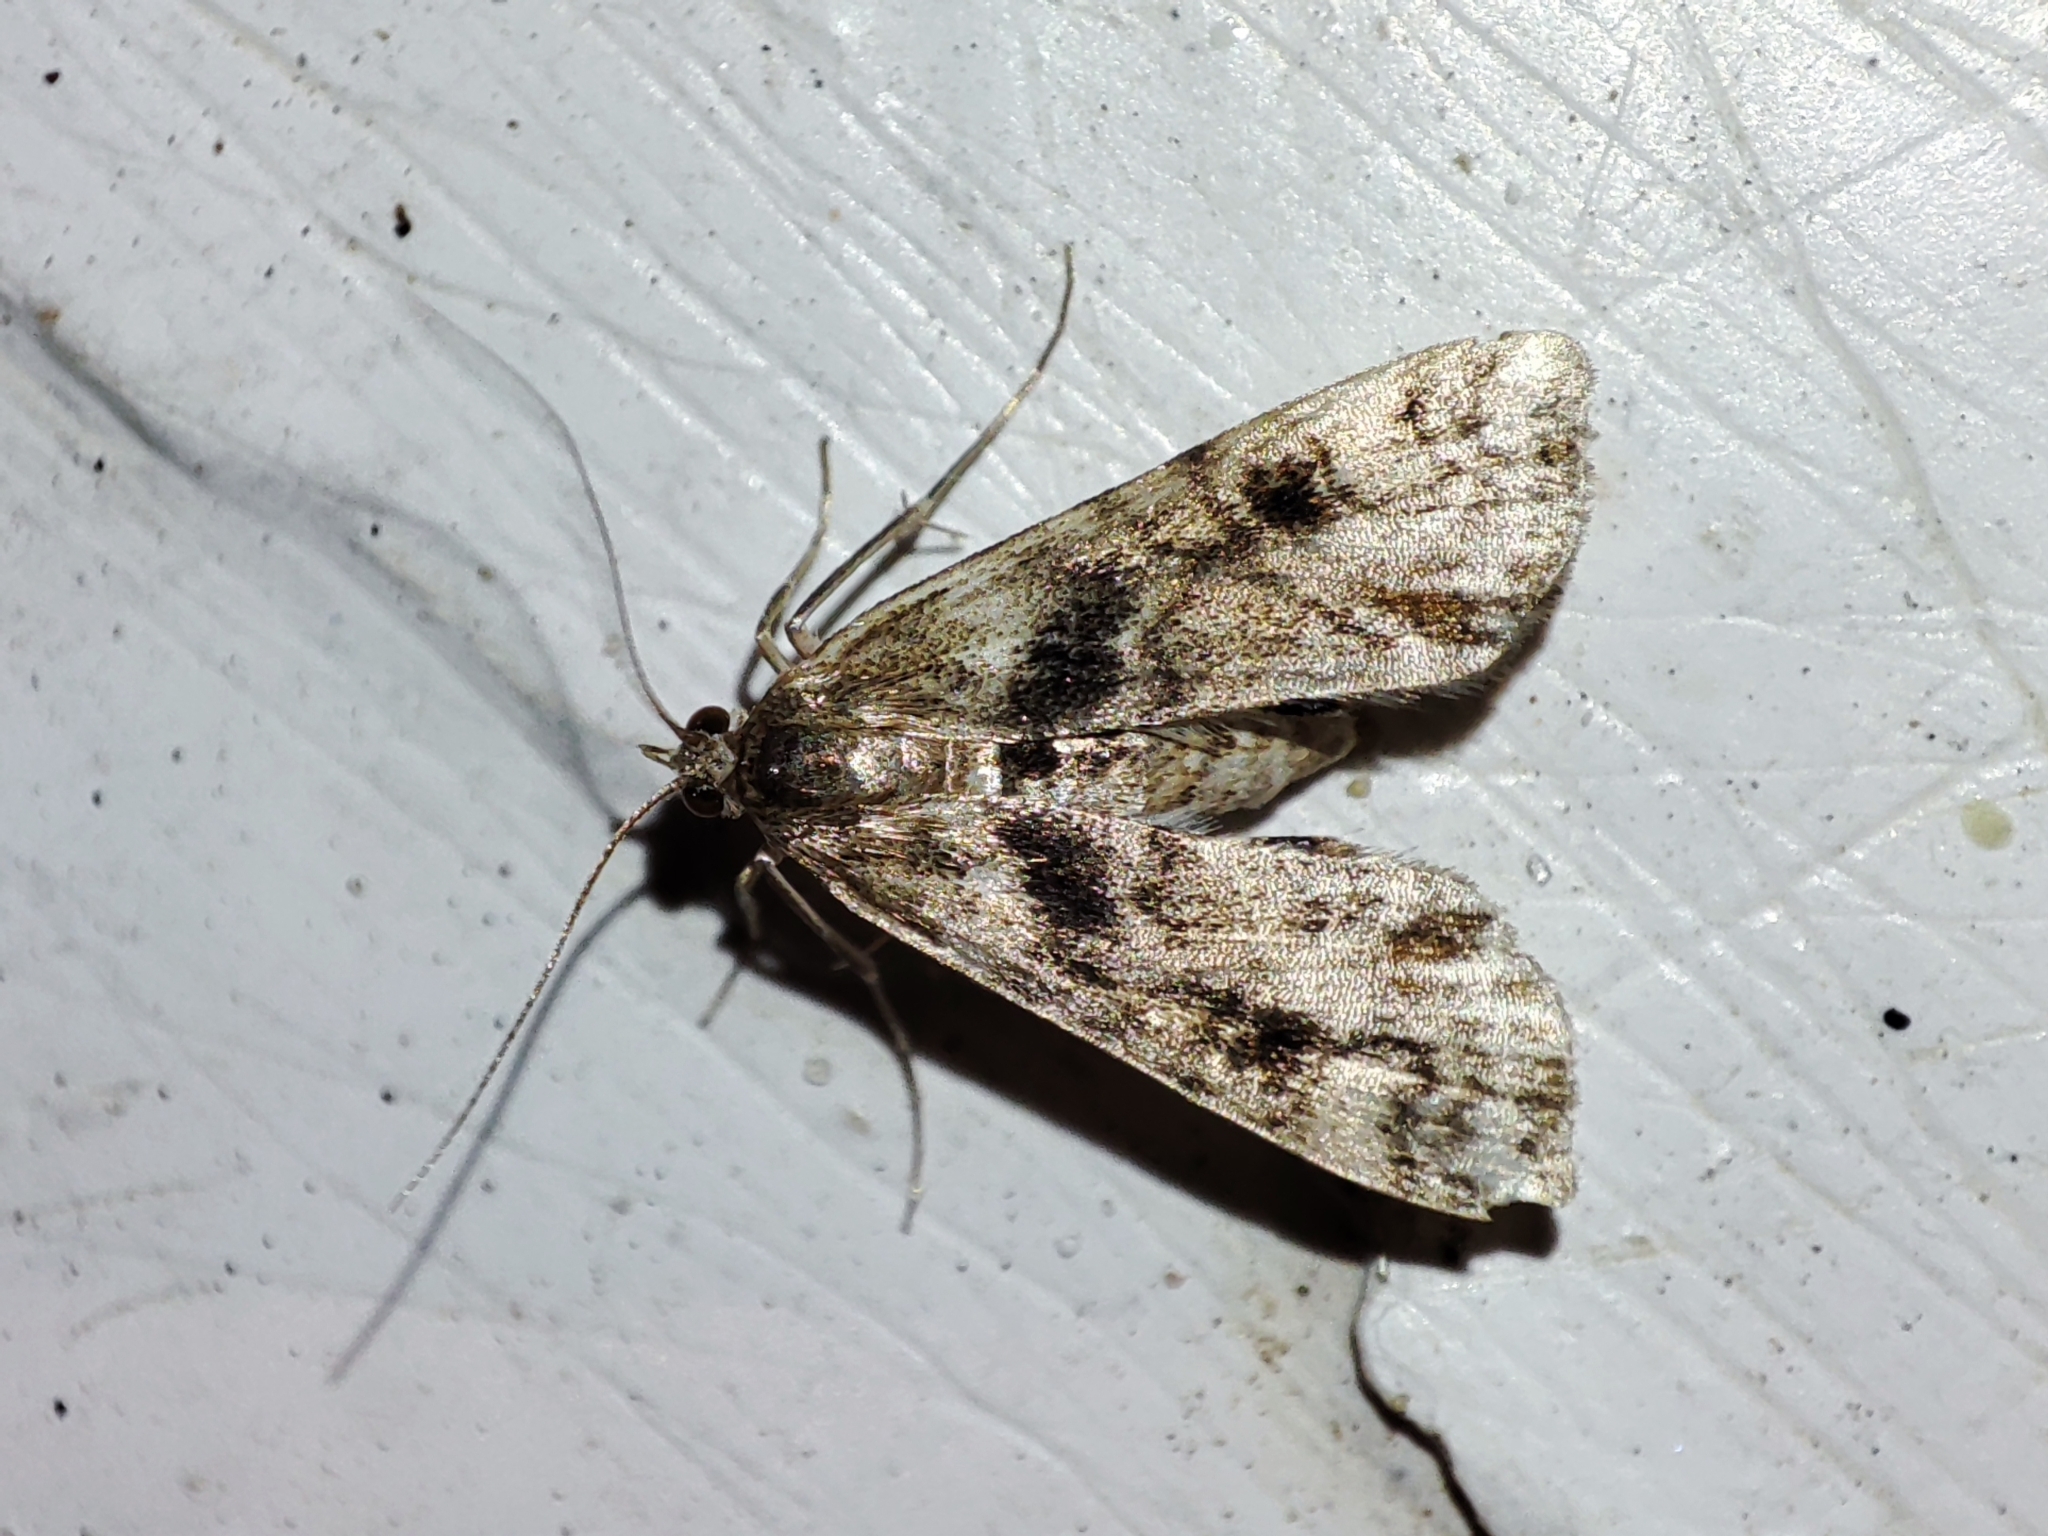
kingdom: Animalia
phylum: Arthropoda
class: Insecta
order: Lepidoptera
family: Crambidae
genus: Cataclysta
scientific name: Cataclysta lemnata
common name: Small china-mark
